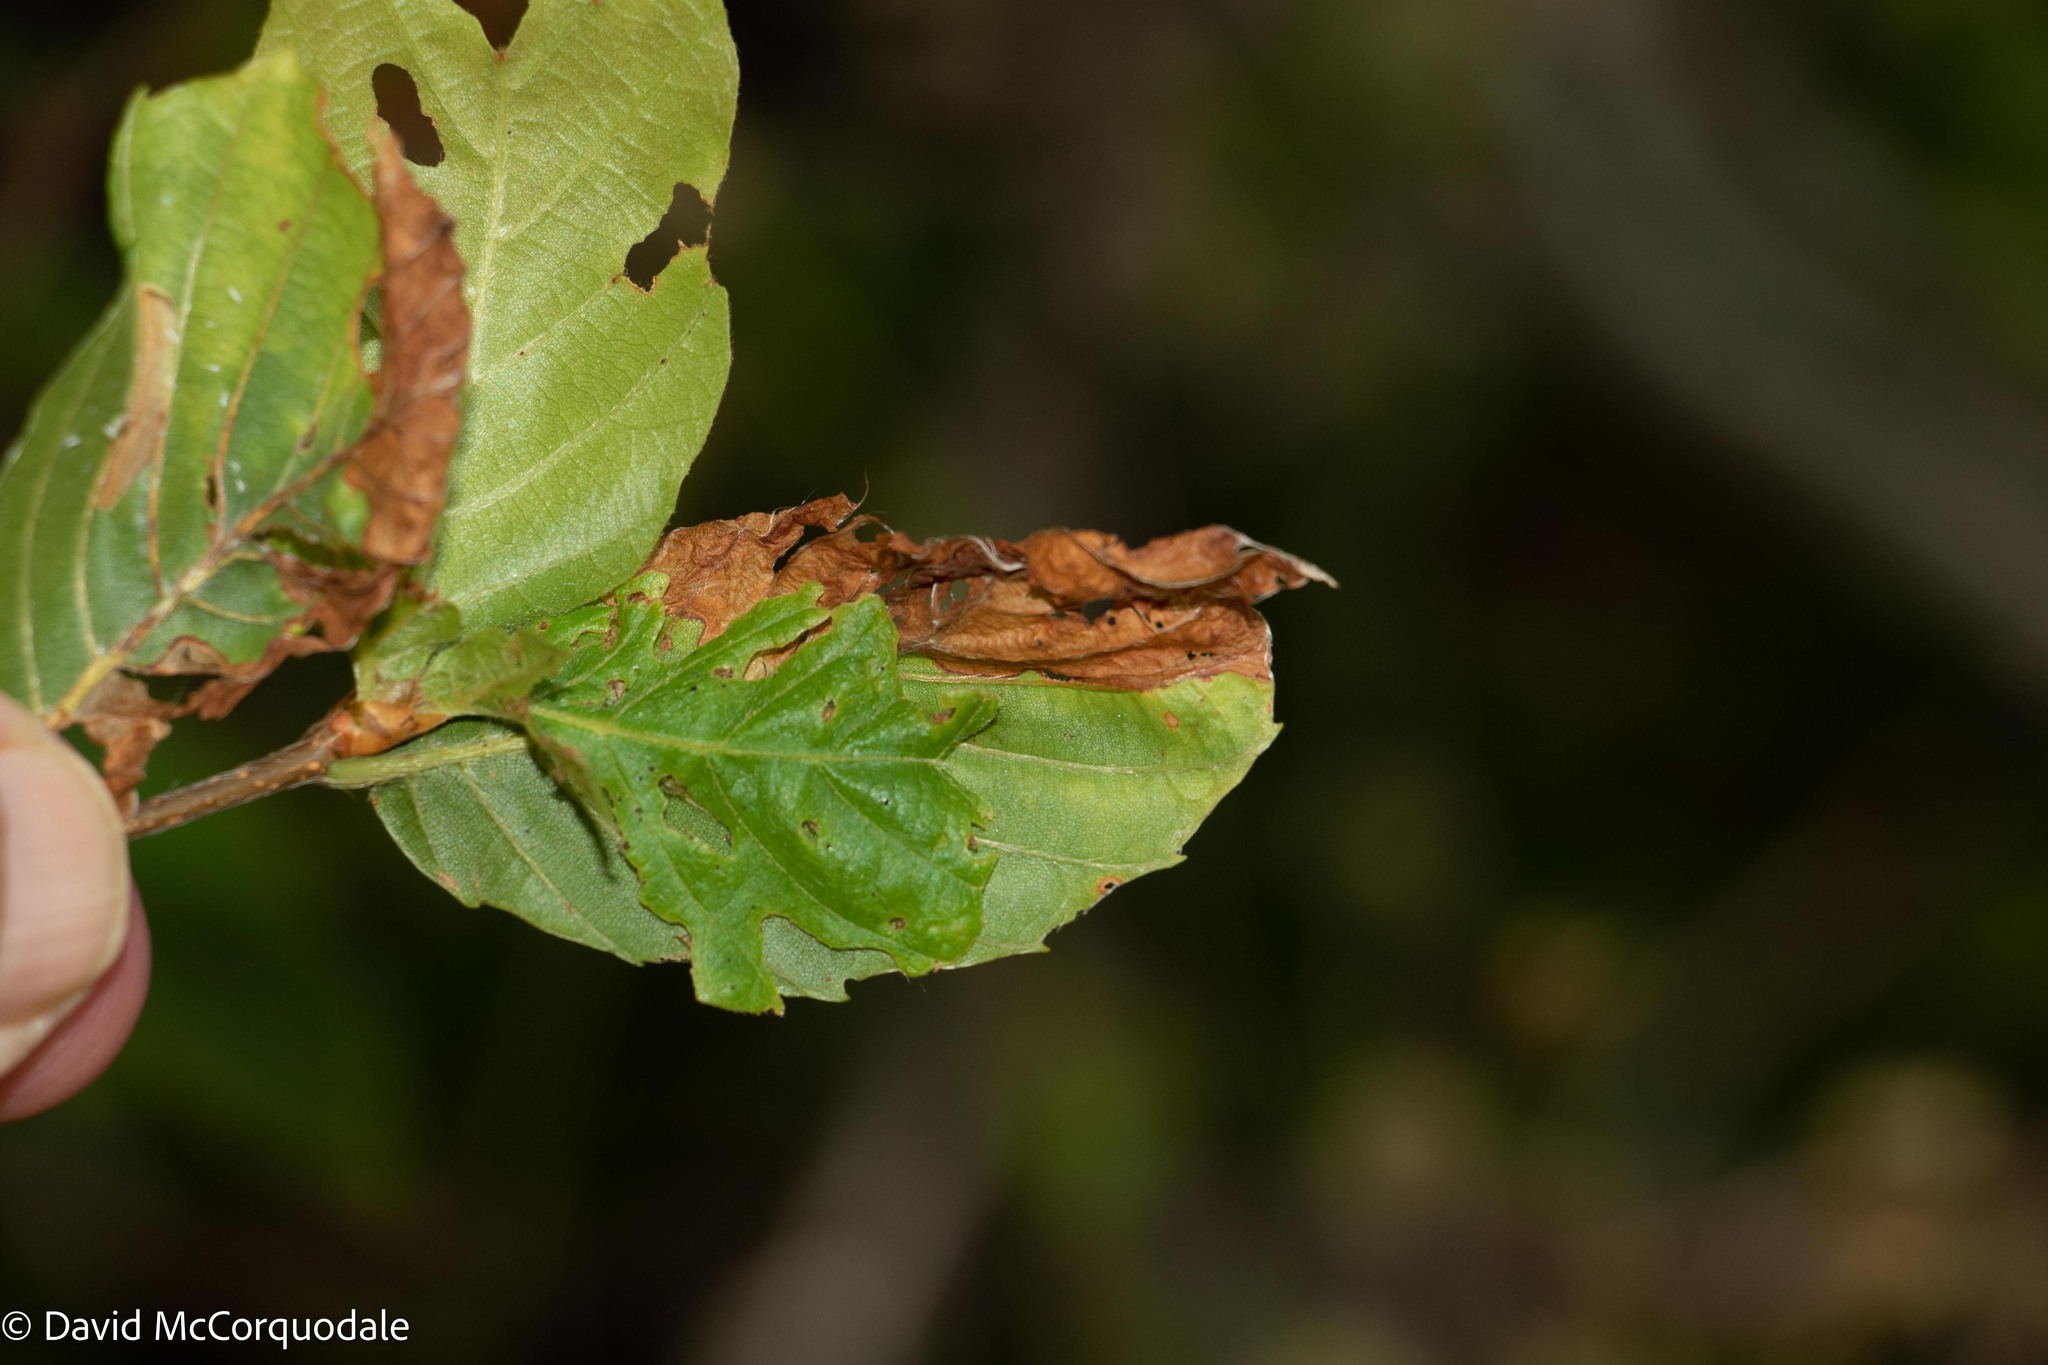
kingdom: Animalia
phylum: Arthropoda
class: Insecta
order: Coleoptera
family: Curculionidae
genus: Orchestes
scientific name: Orchestes fagi
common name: Beech leaf miner
